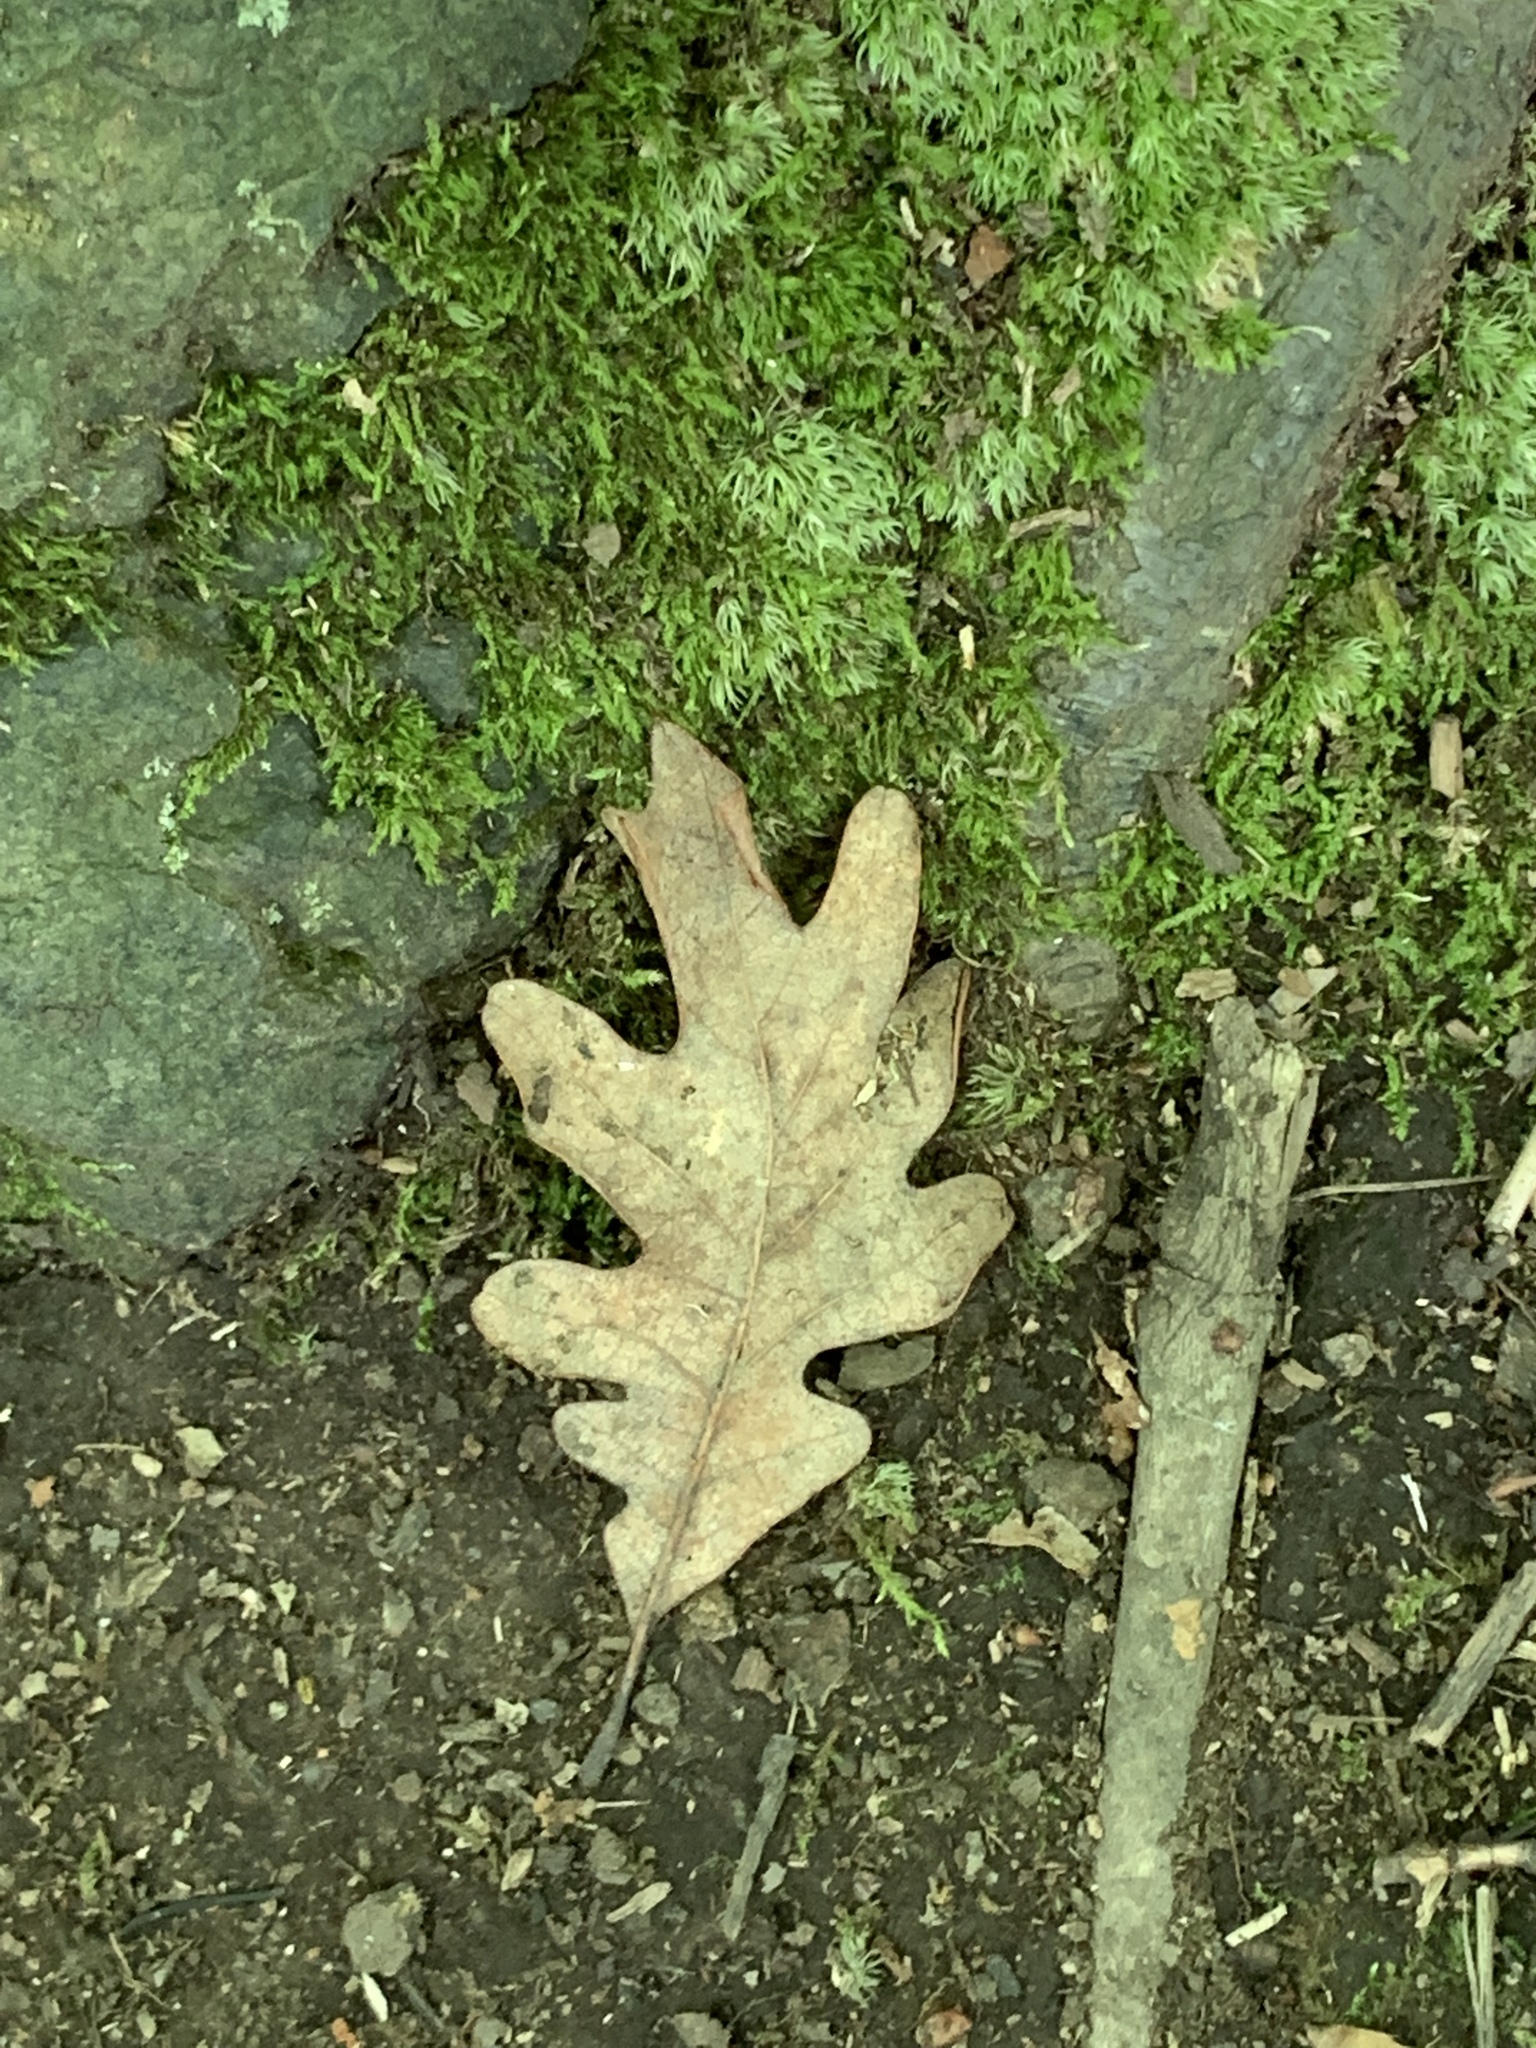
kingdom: Plantae
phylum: Tracheophyta
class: Magnoliopsida
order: Fagales
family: Fagaceae
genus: Quercus
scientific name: Quercus alba
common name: White oak
